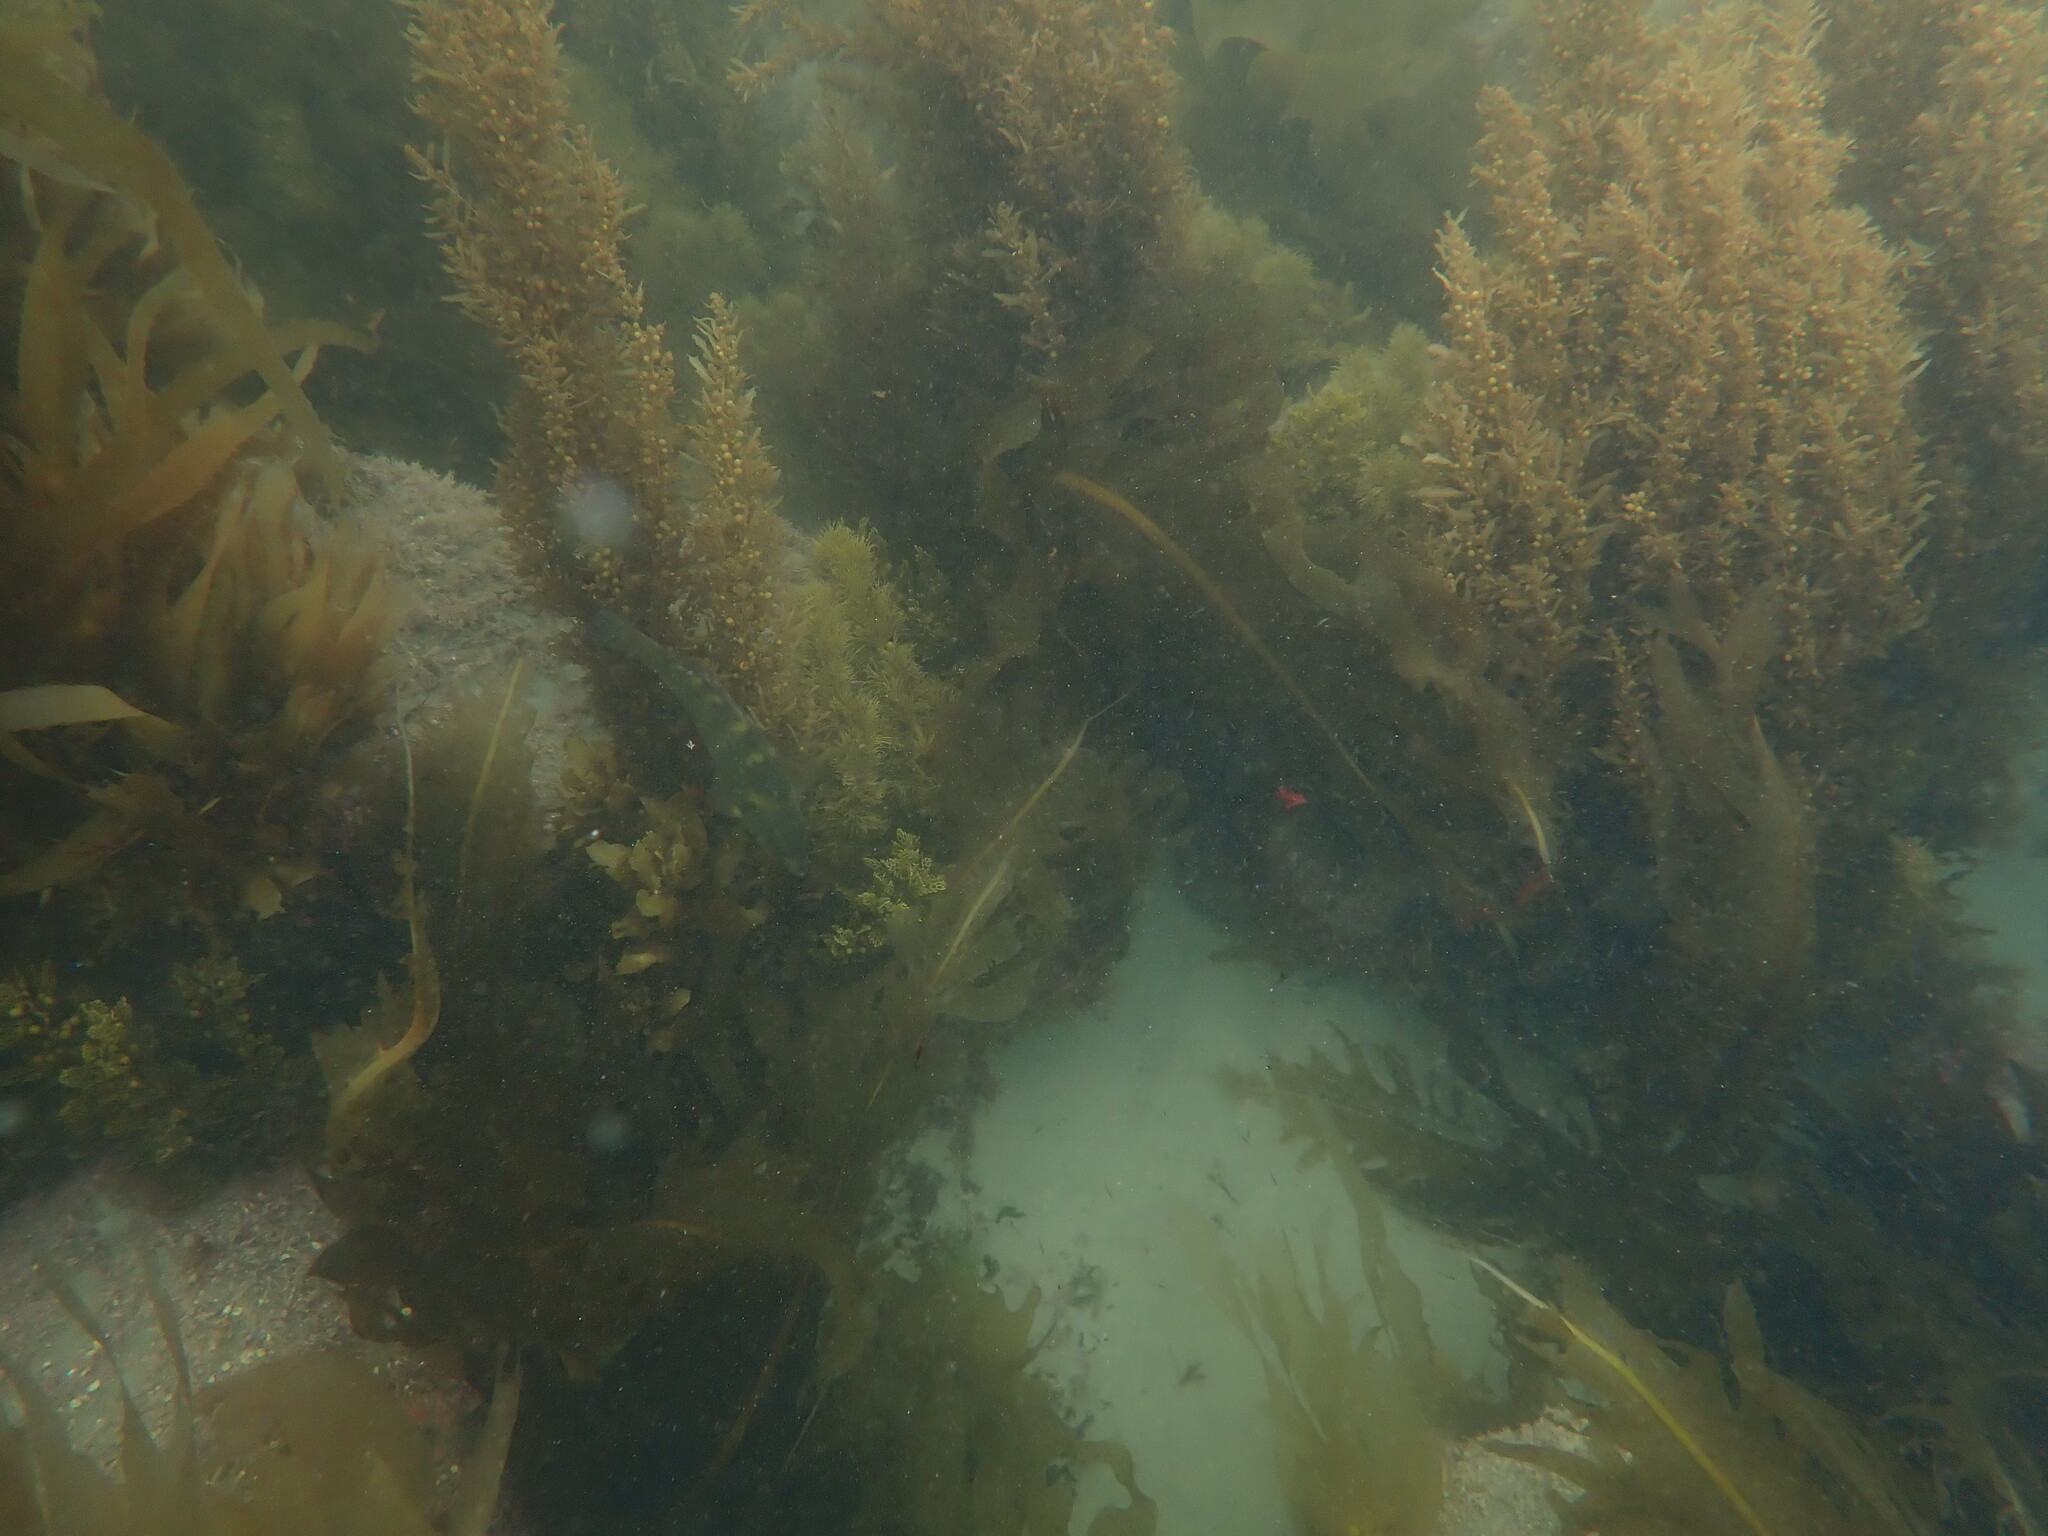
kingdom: Animalia
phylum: Chordata
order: Perciformes
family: Labridae
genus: Notolabrus
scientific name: Notolabrus fucicola
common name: Banded parrotfish
